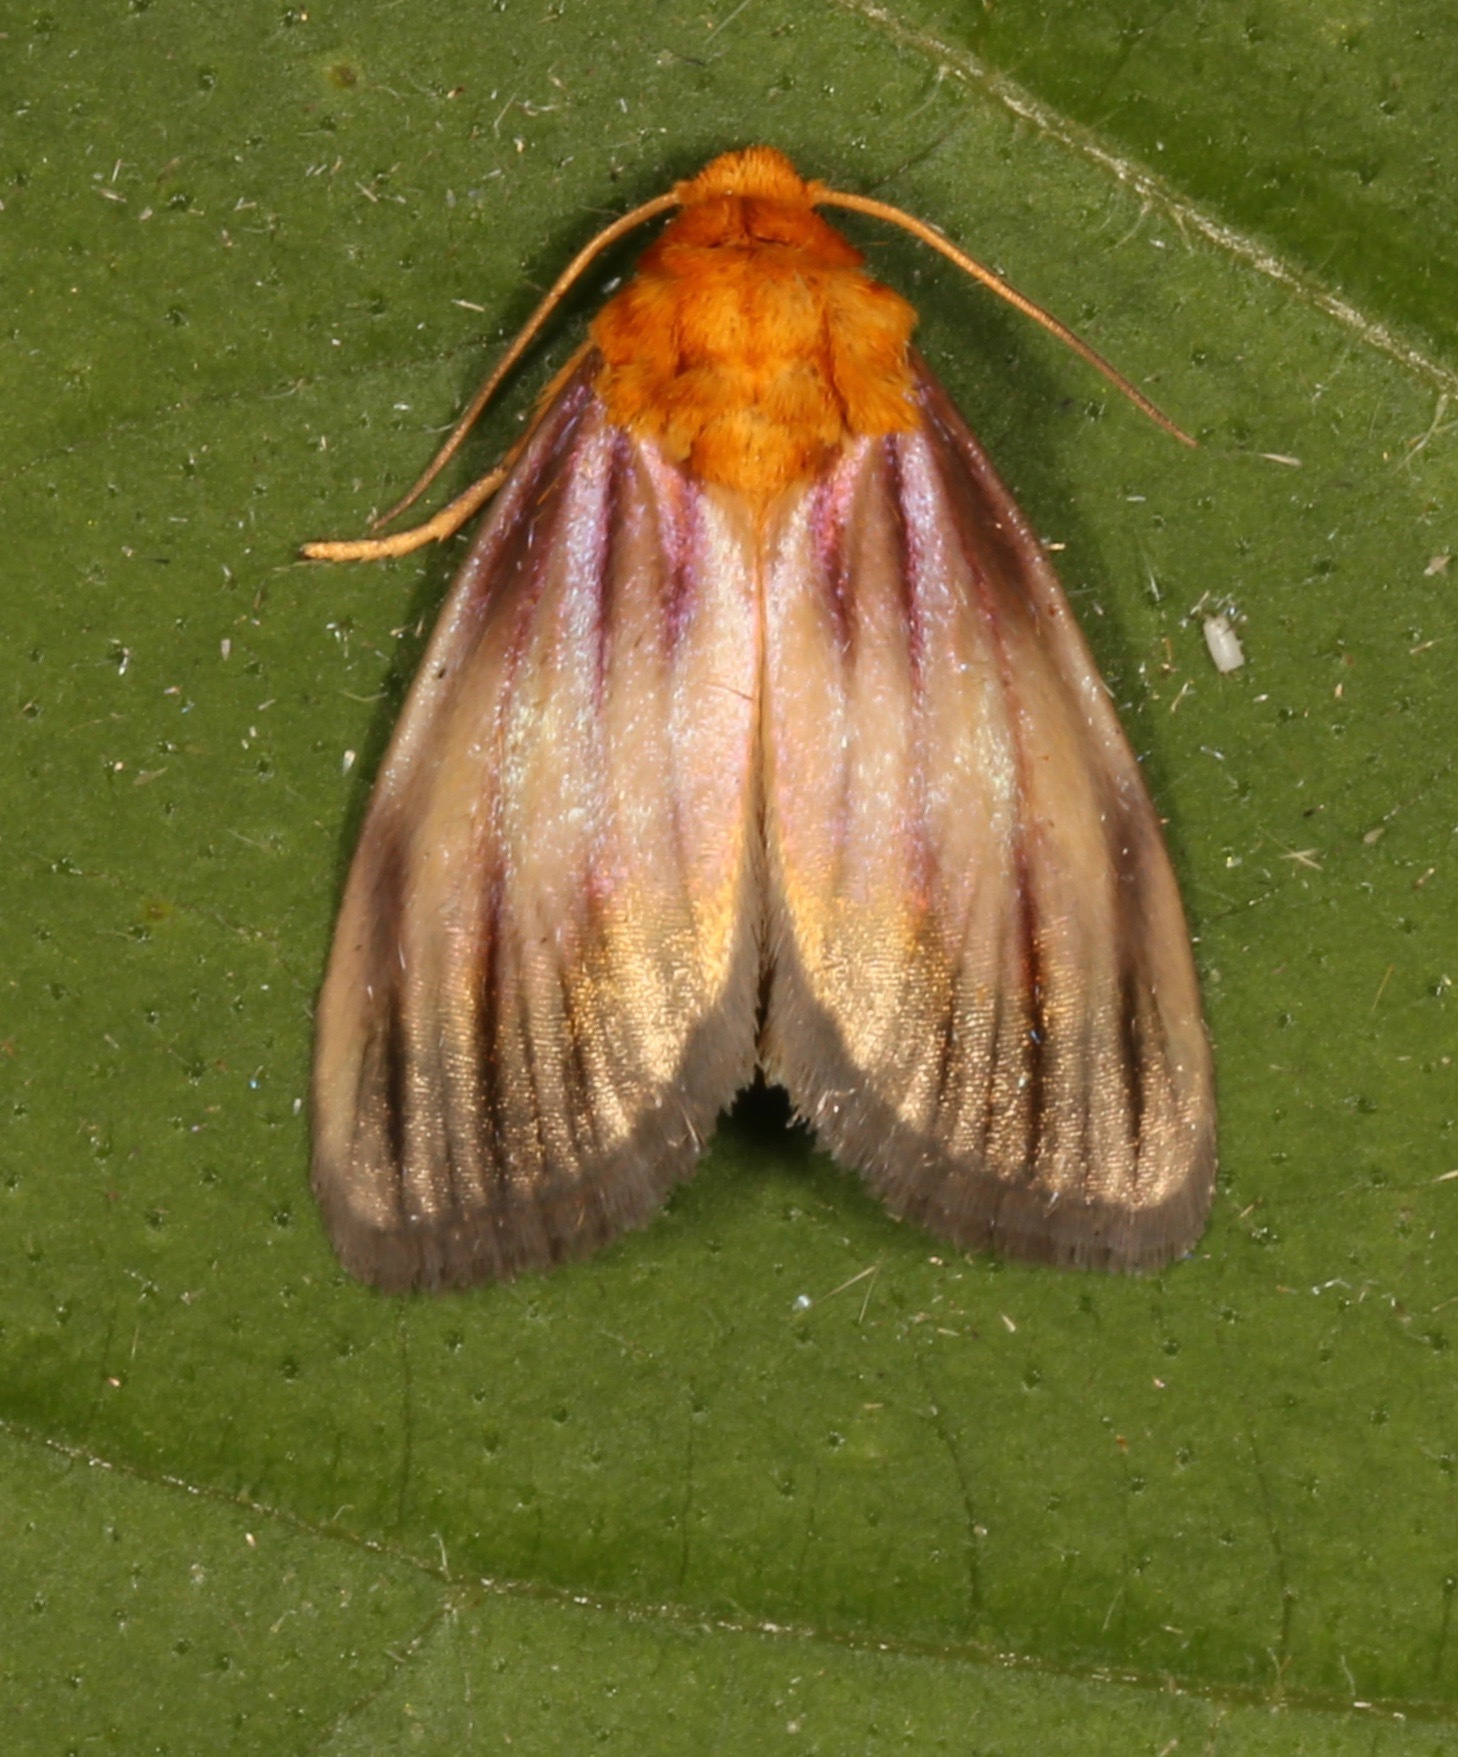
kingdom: Animalia
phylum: Arthropoda
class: Insecta
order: Lepidoptera
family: Noctuidae
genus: Antaplaga
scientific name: Antaplaga plesioglauca
